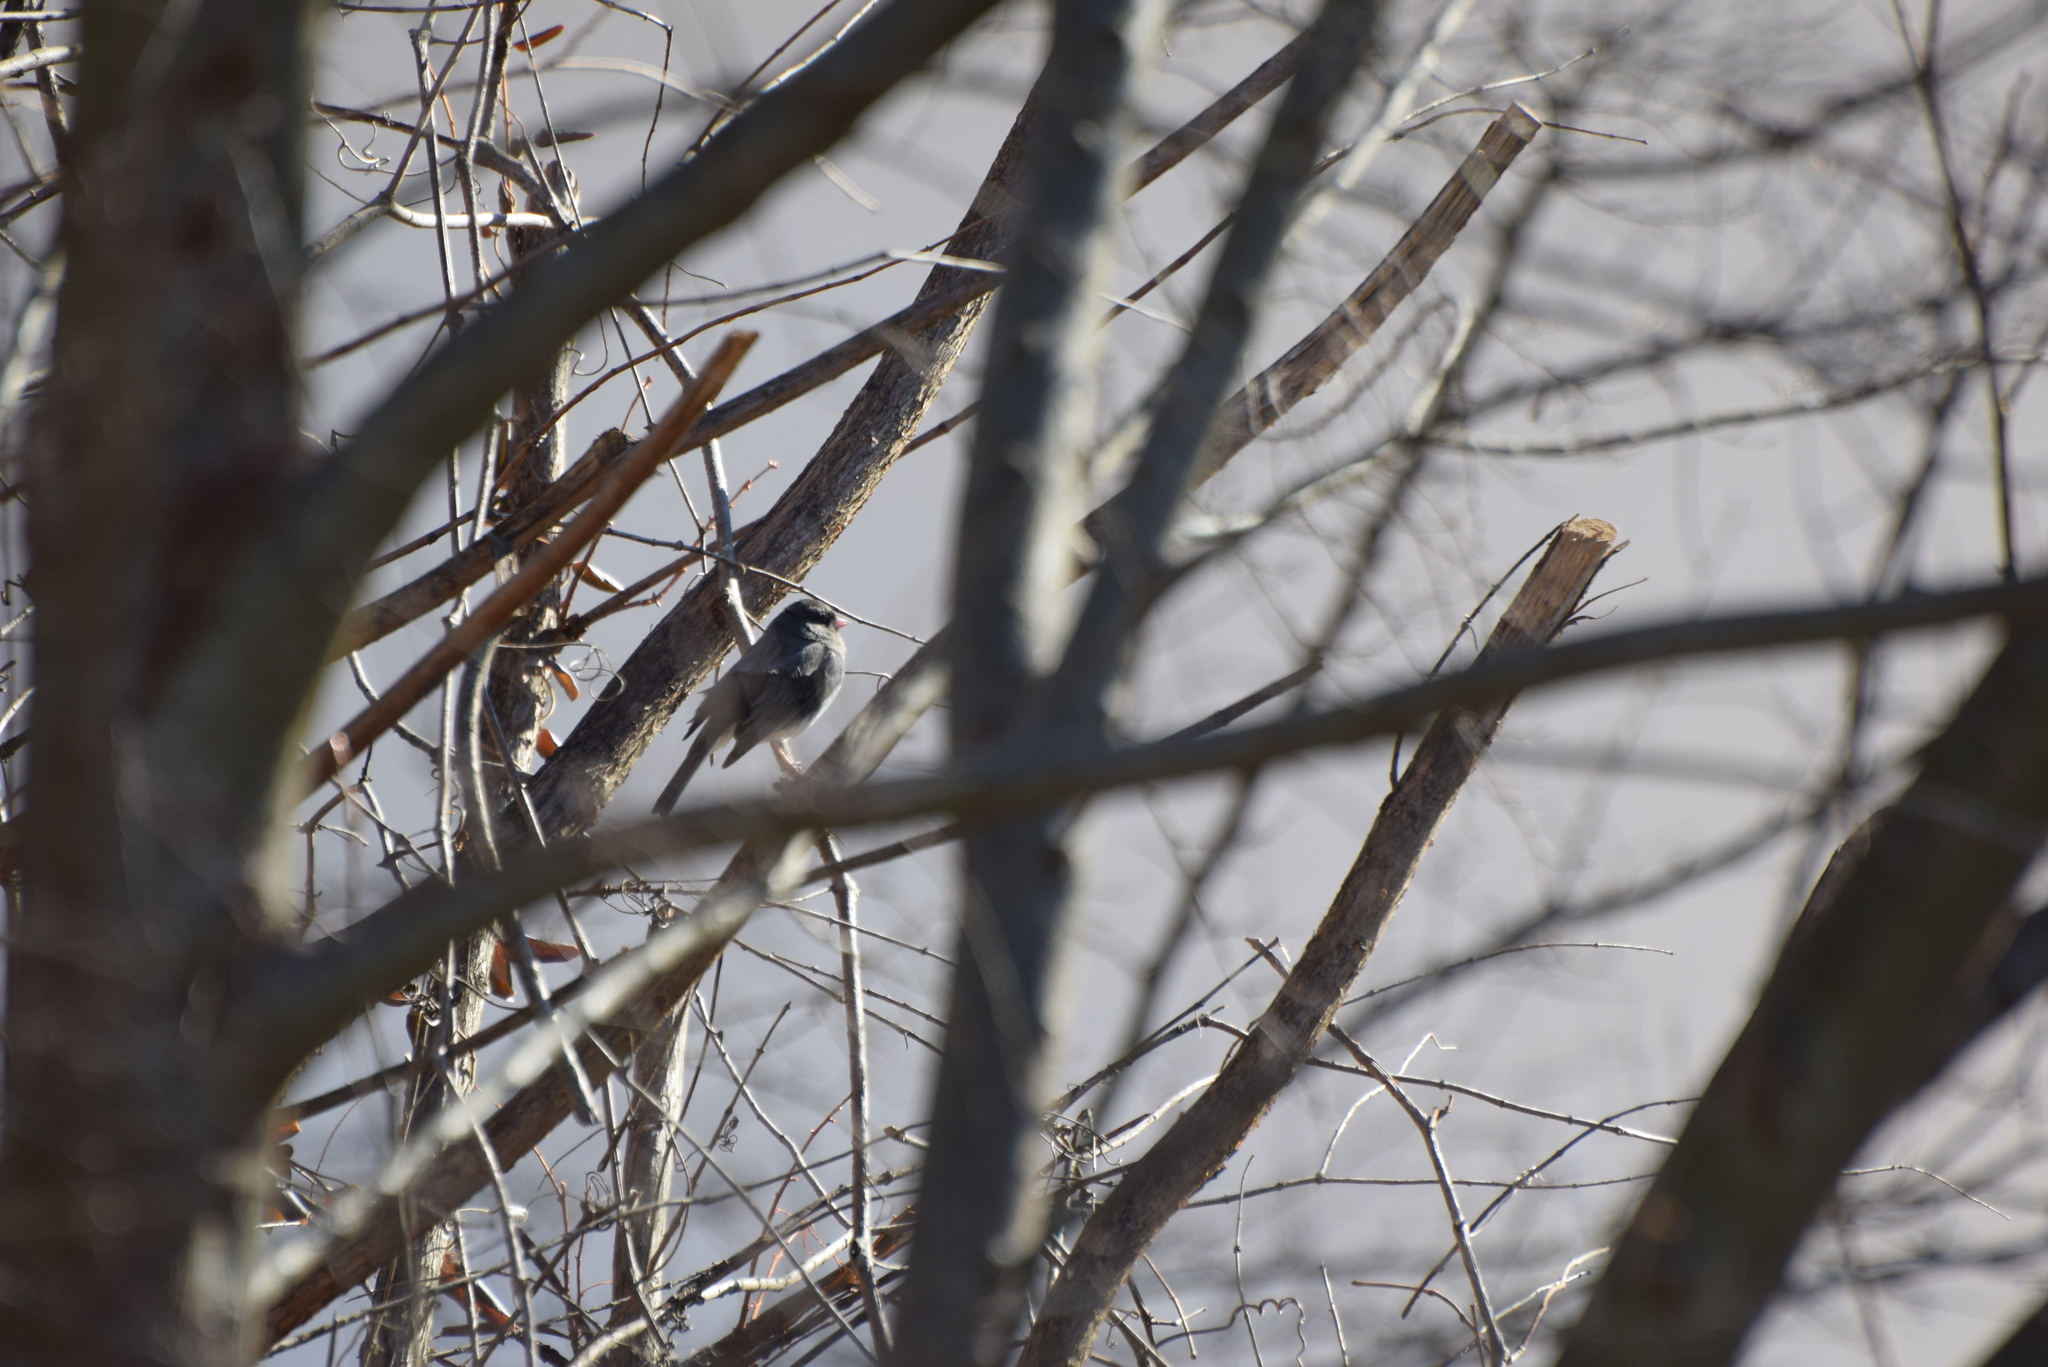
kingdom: Animalia
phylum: Chordata
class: Aves
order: Passeriformes
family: Passerellidae
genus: Junco
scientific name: Junco hyemalis
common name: Dark-eyed junco
